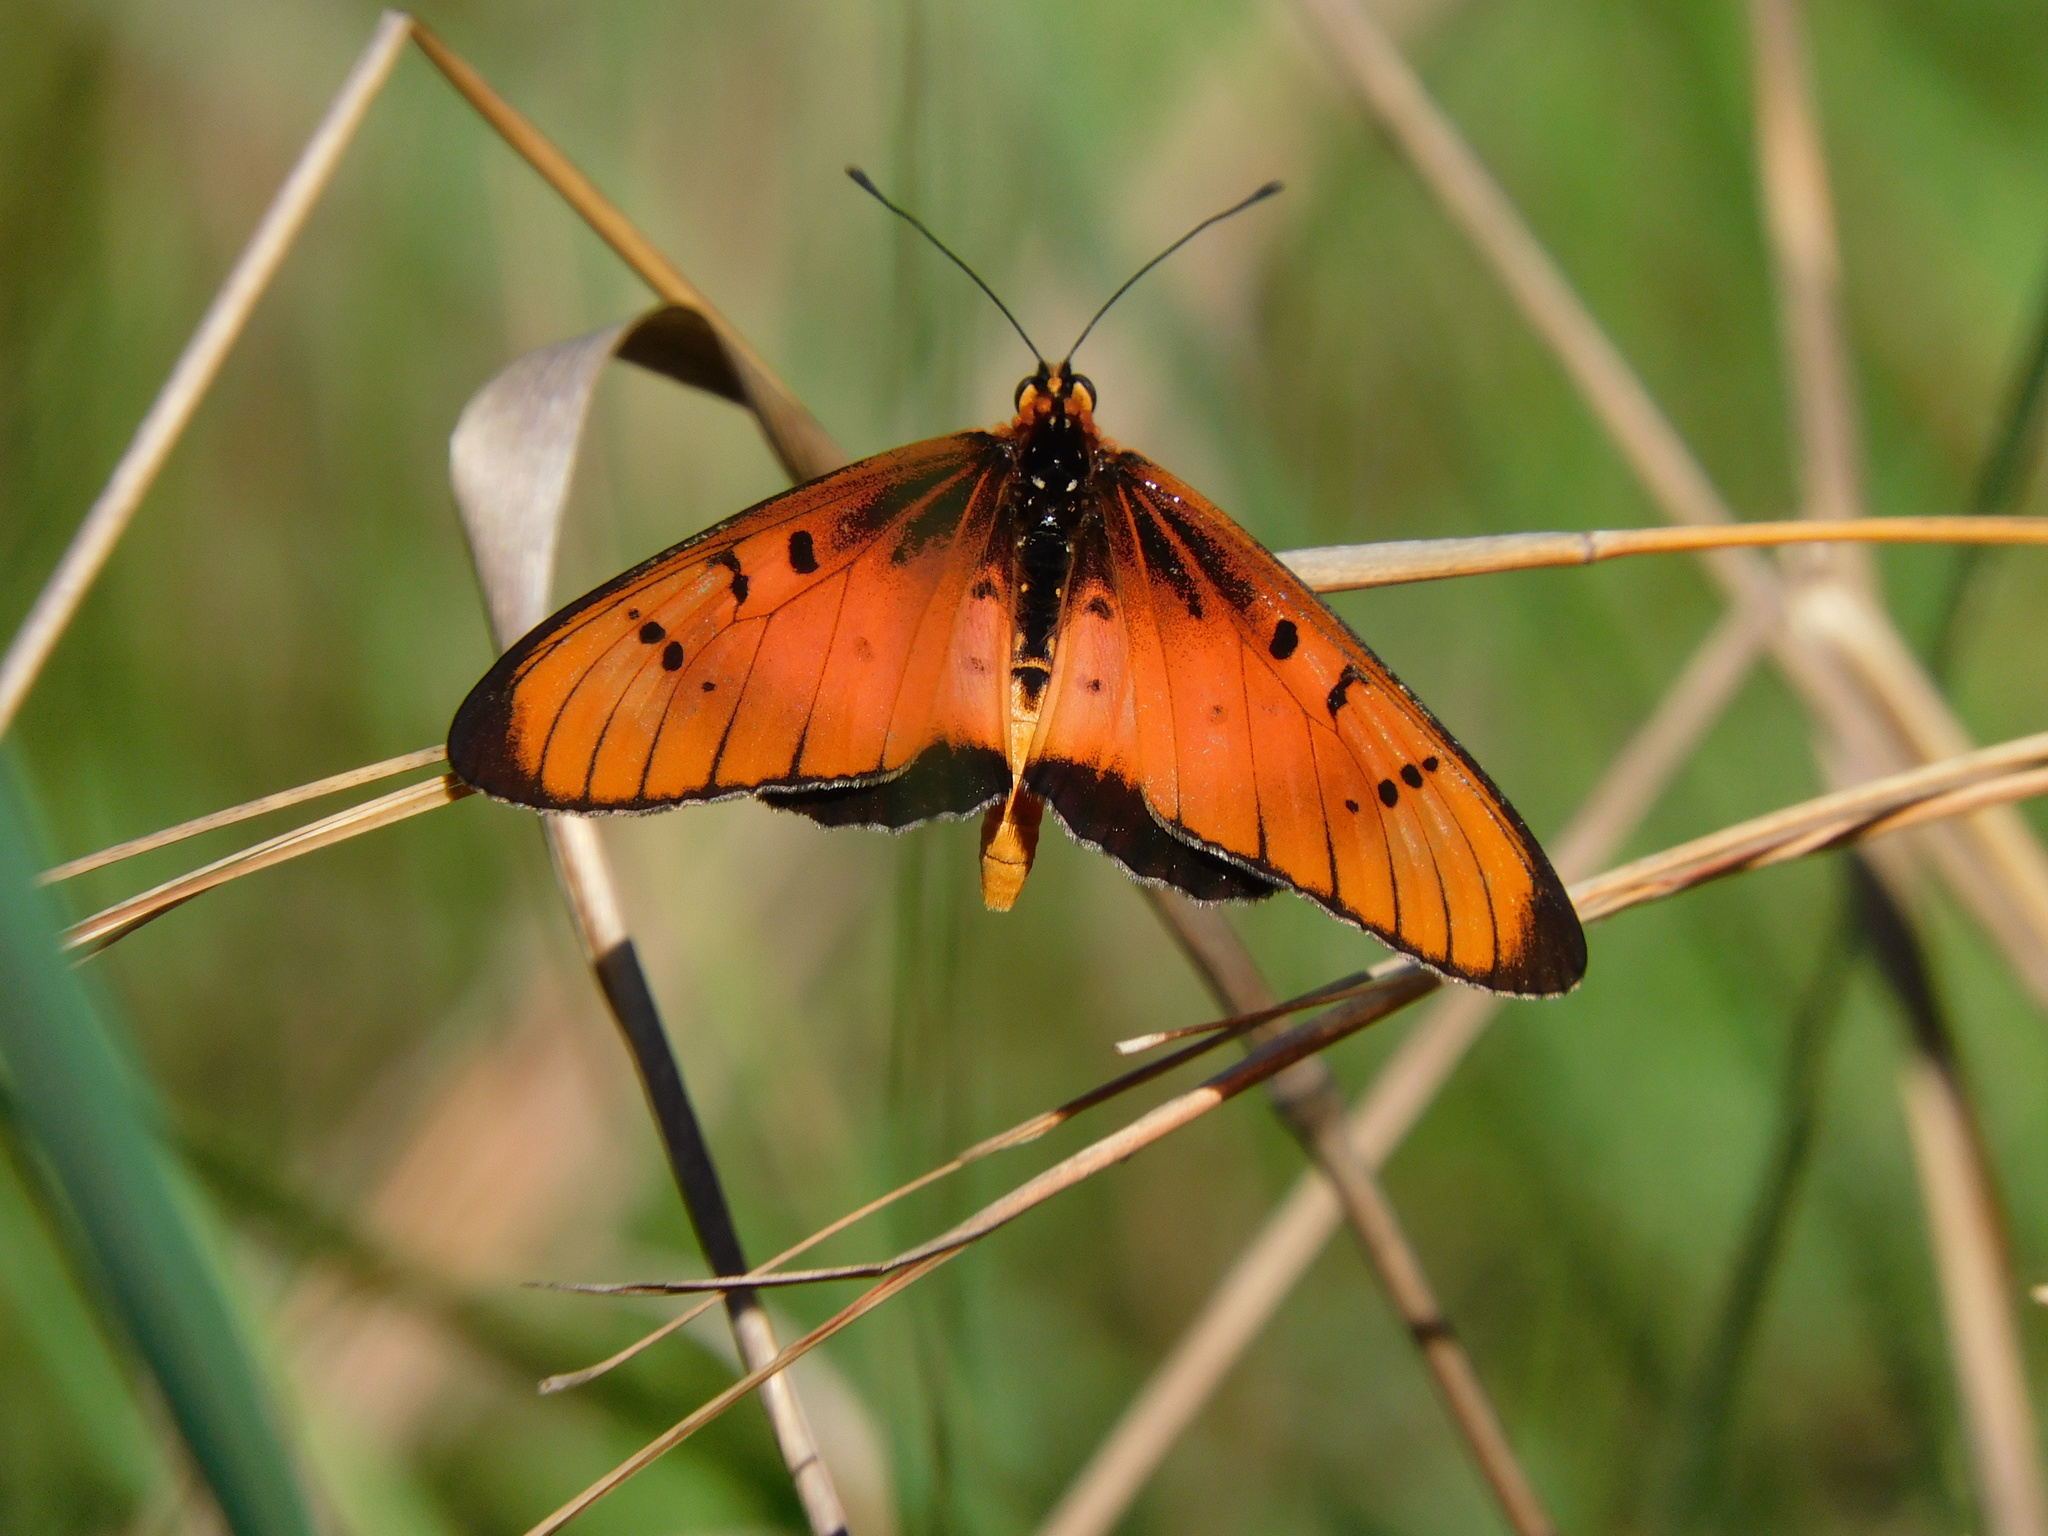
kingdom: Animalia
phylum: Arthropoda
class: Insecta
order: Lepidoptera
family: Nymphalidae
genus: Stephenia
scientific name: Stephenia
